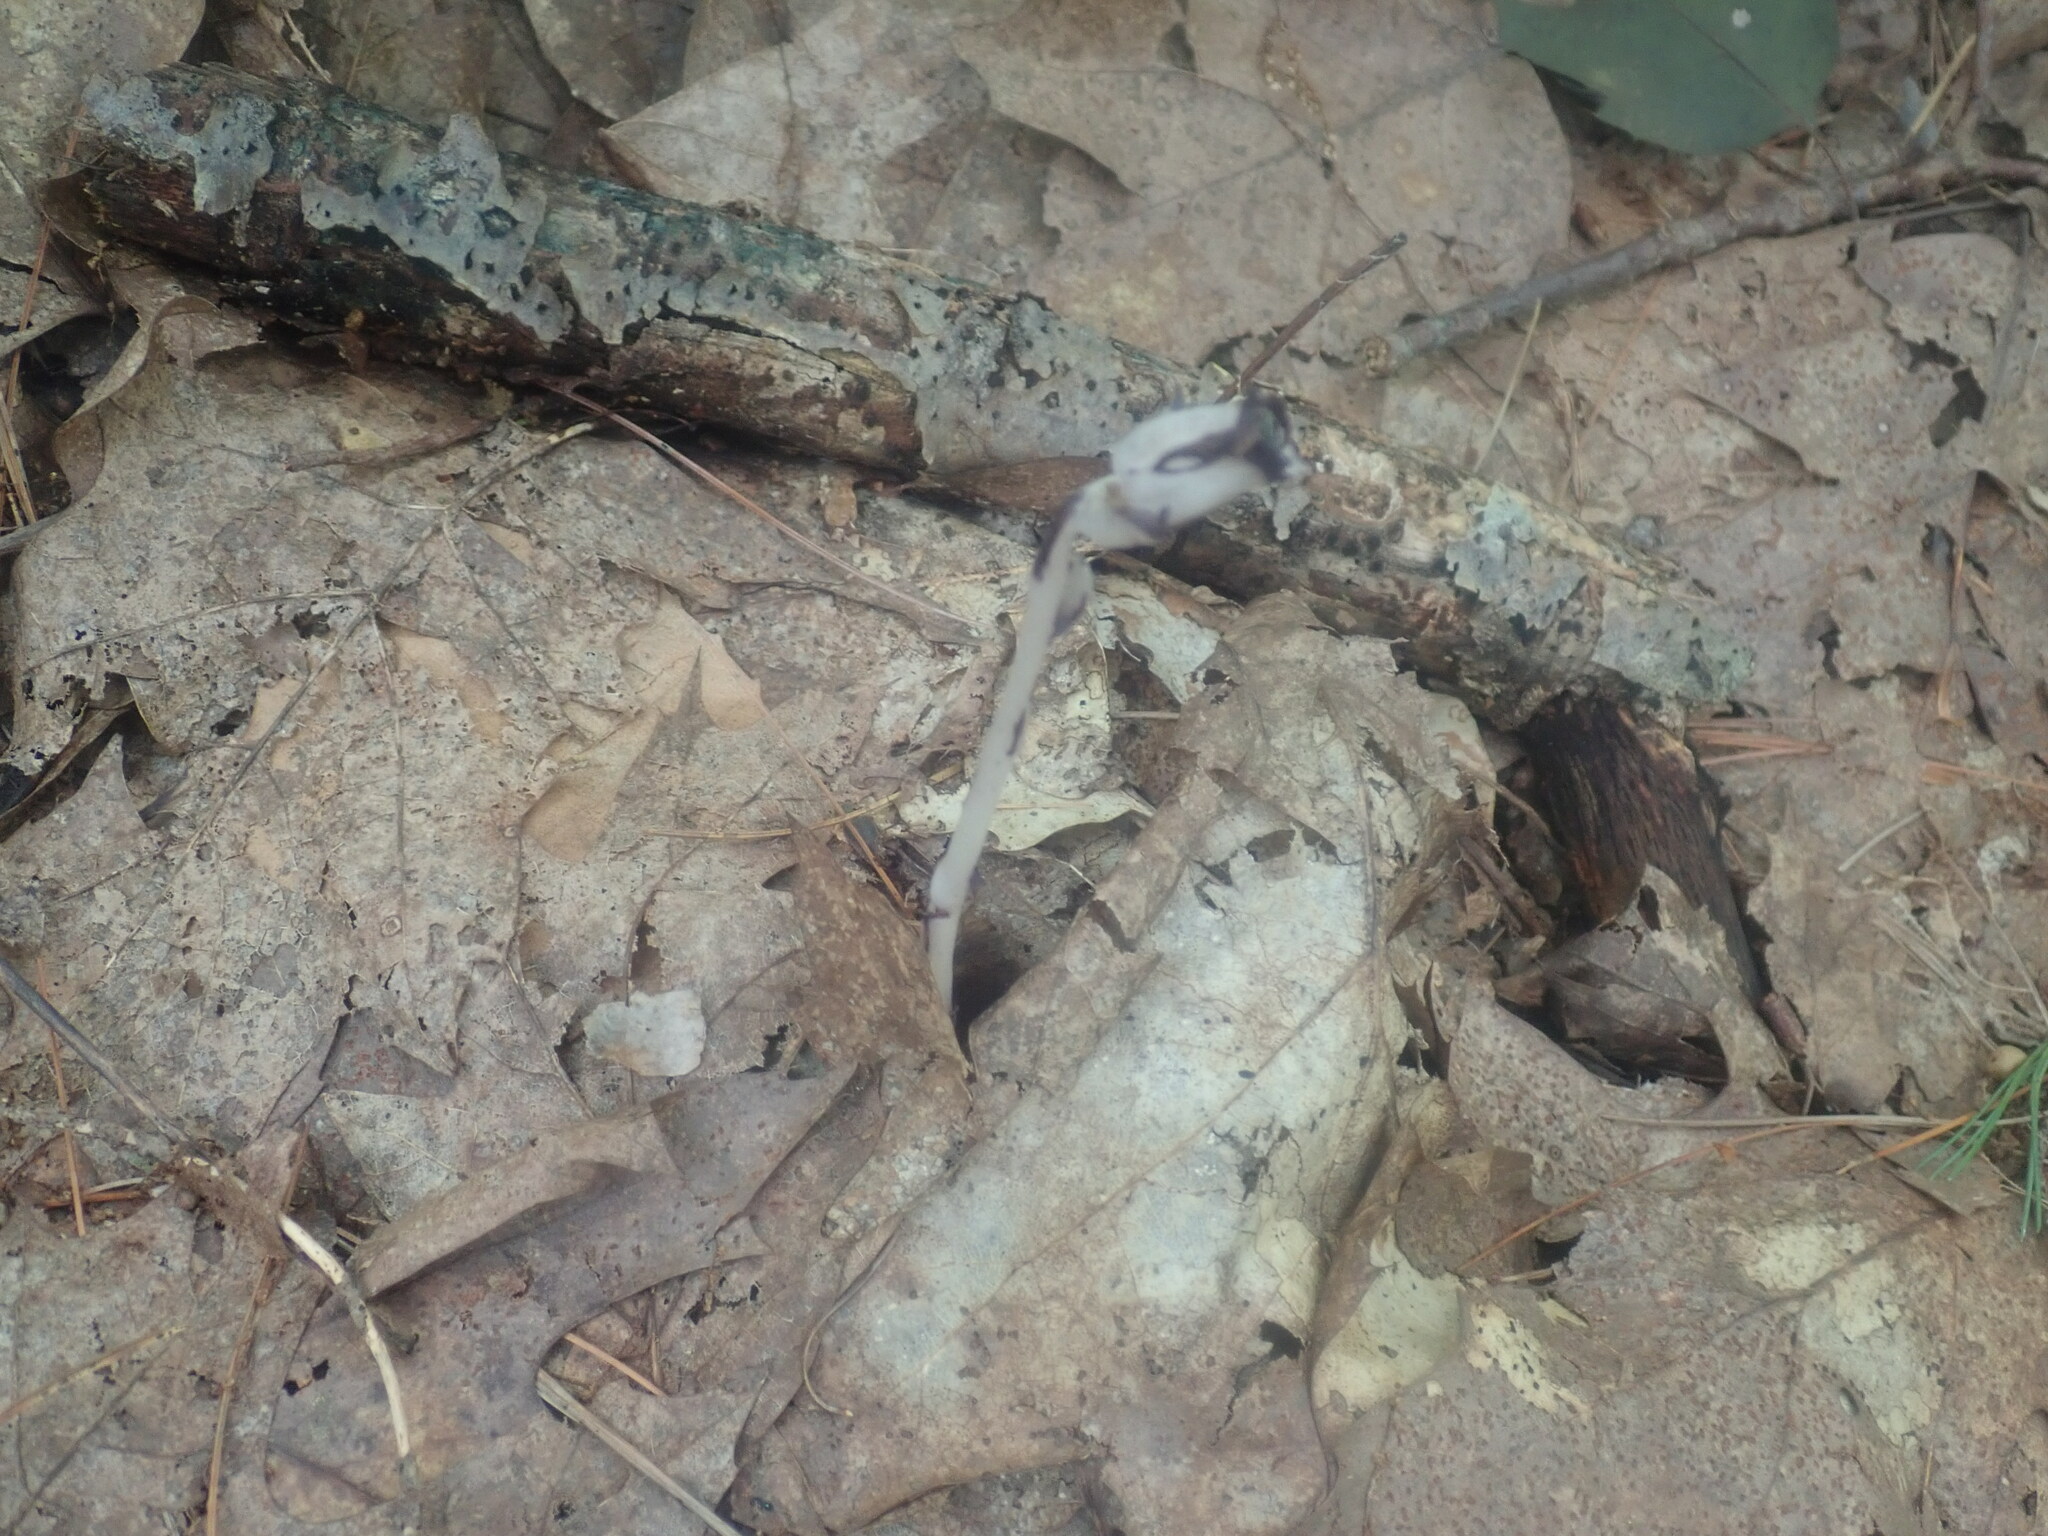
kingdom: Plantae
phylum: Tracheophyta
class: Magnoliopsida
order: Ericales
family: Ericaceae
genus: Monotropa
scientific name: Monotropa uniflora
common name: Convulsion root
